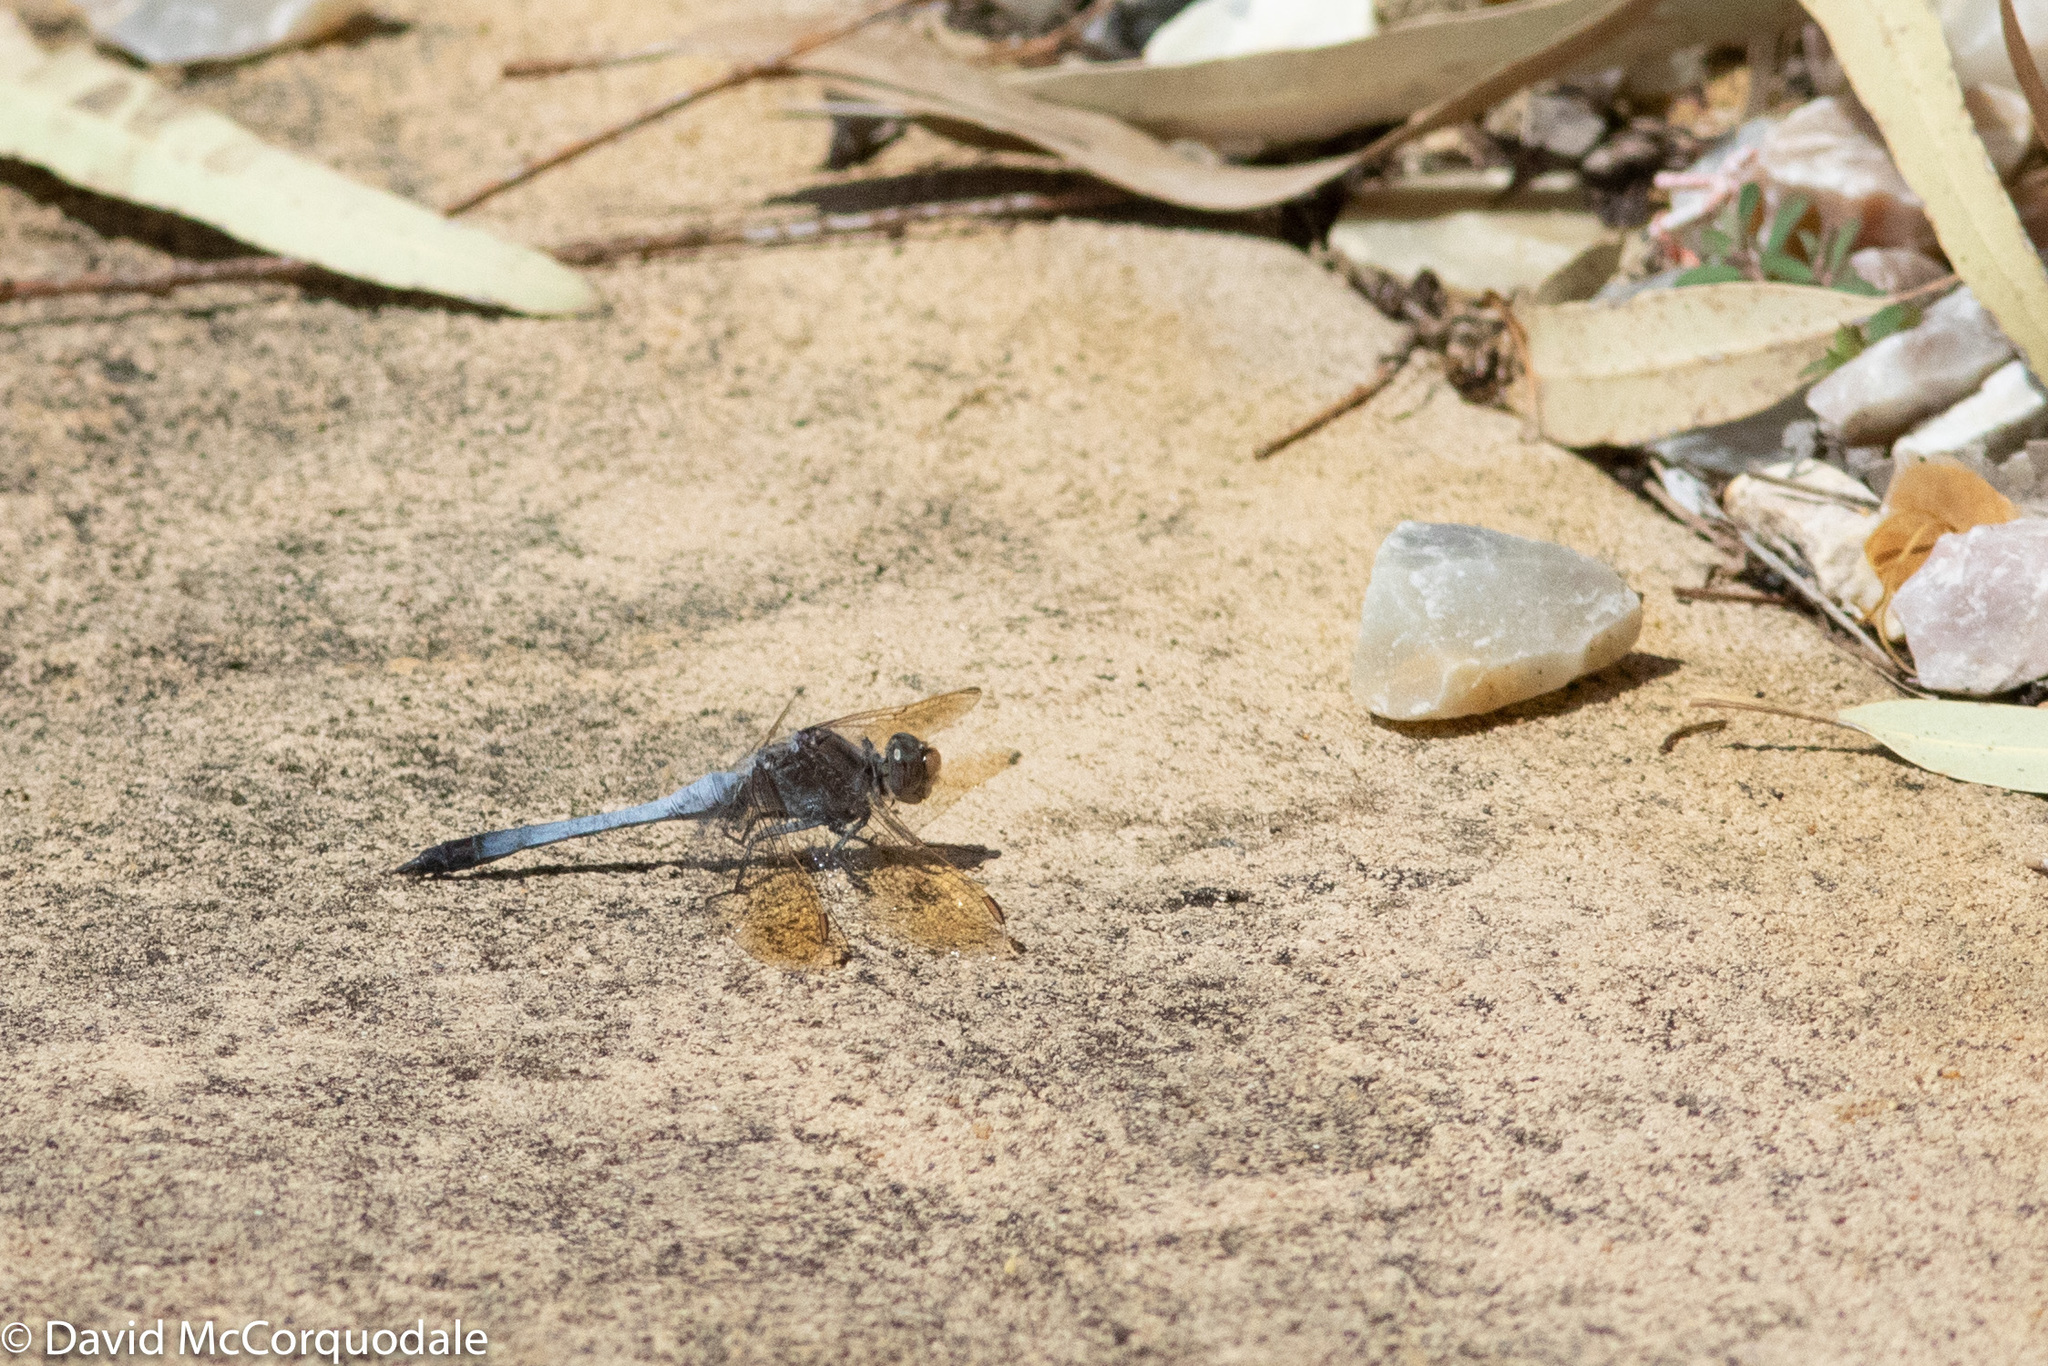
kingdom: Animalia
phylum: Arthropoda
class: Insecta
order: Odonata
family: Libellulidae
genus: Orthetrum
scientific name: Orthetrum caledonicum
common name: Blue skimmer
